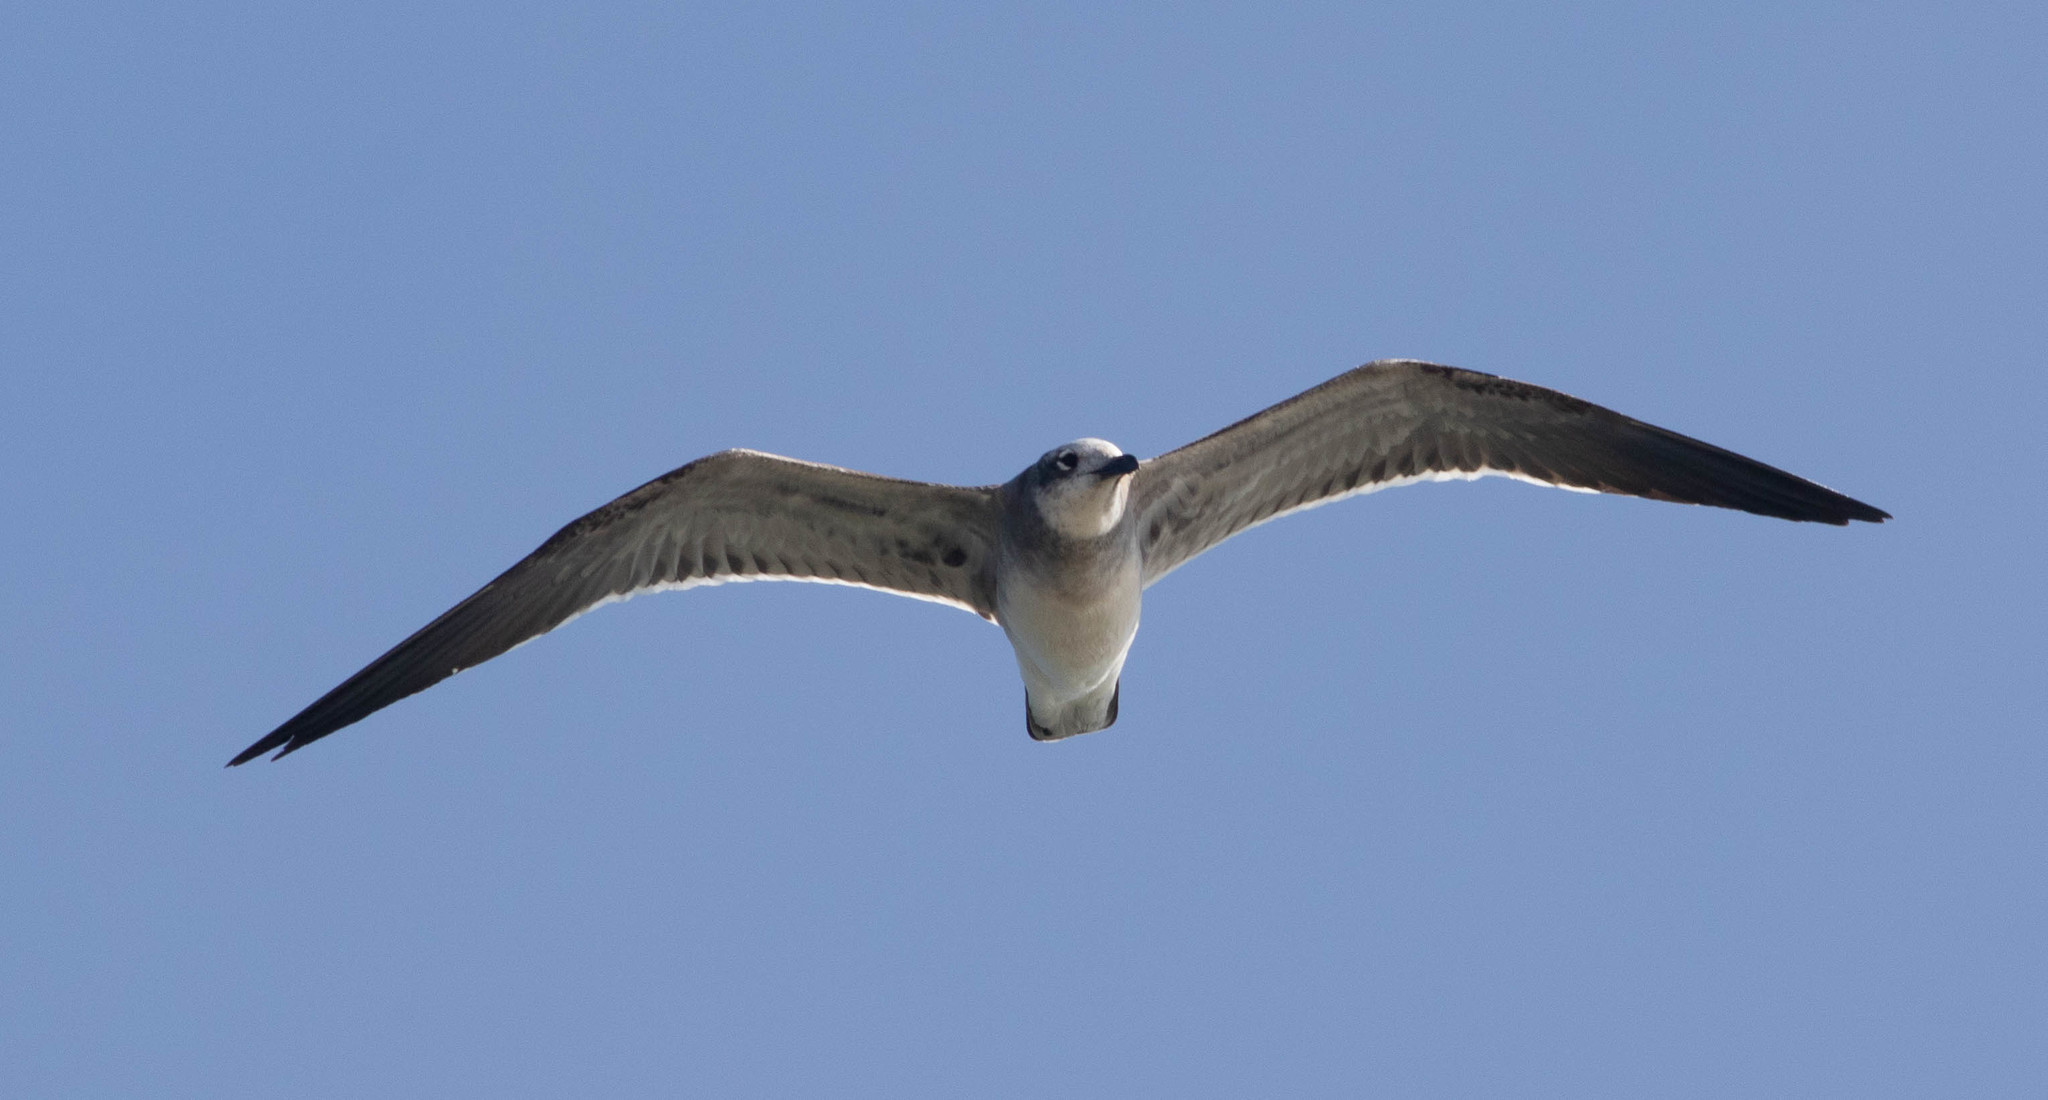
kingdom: Animalia
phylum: Chordata
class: Aves
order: Charadriiformes
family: Laridae
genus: Leucophaeus
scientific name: Leucophaeus atricilla
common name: Laughing gull
